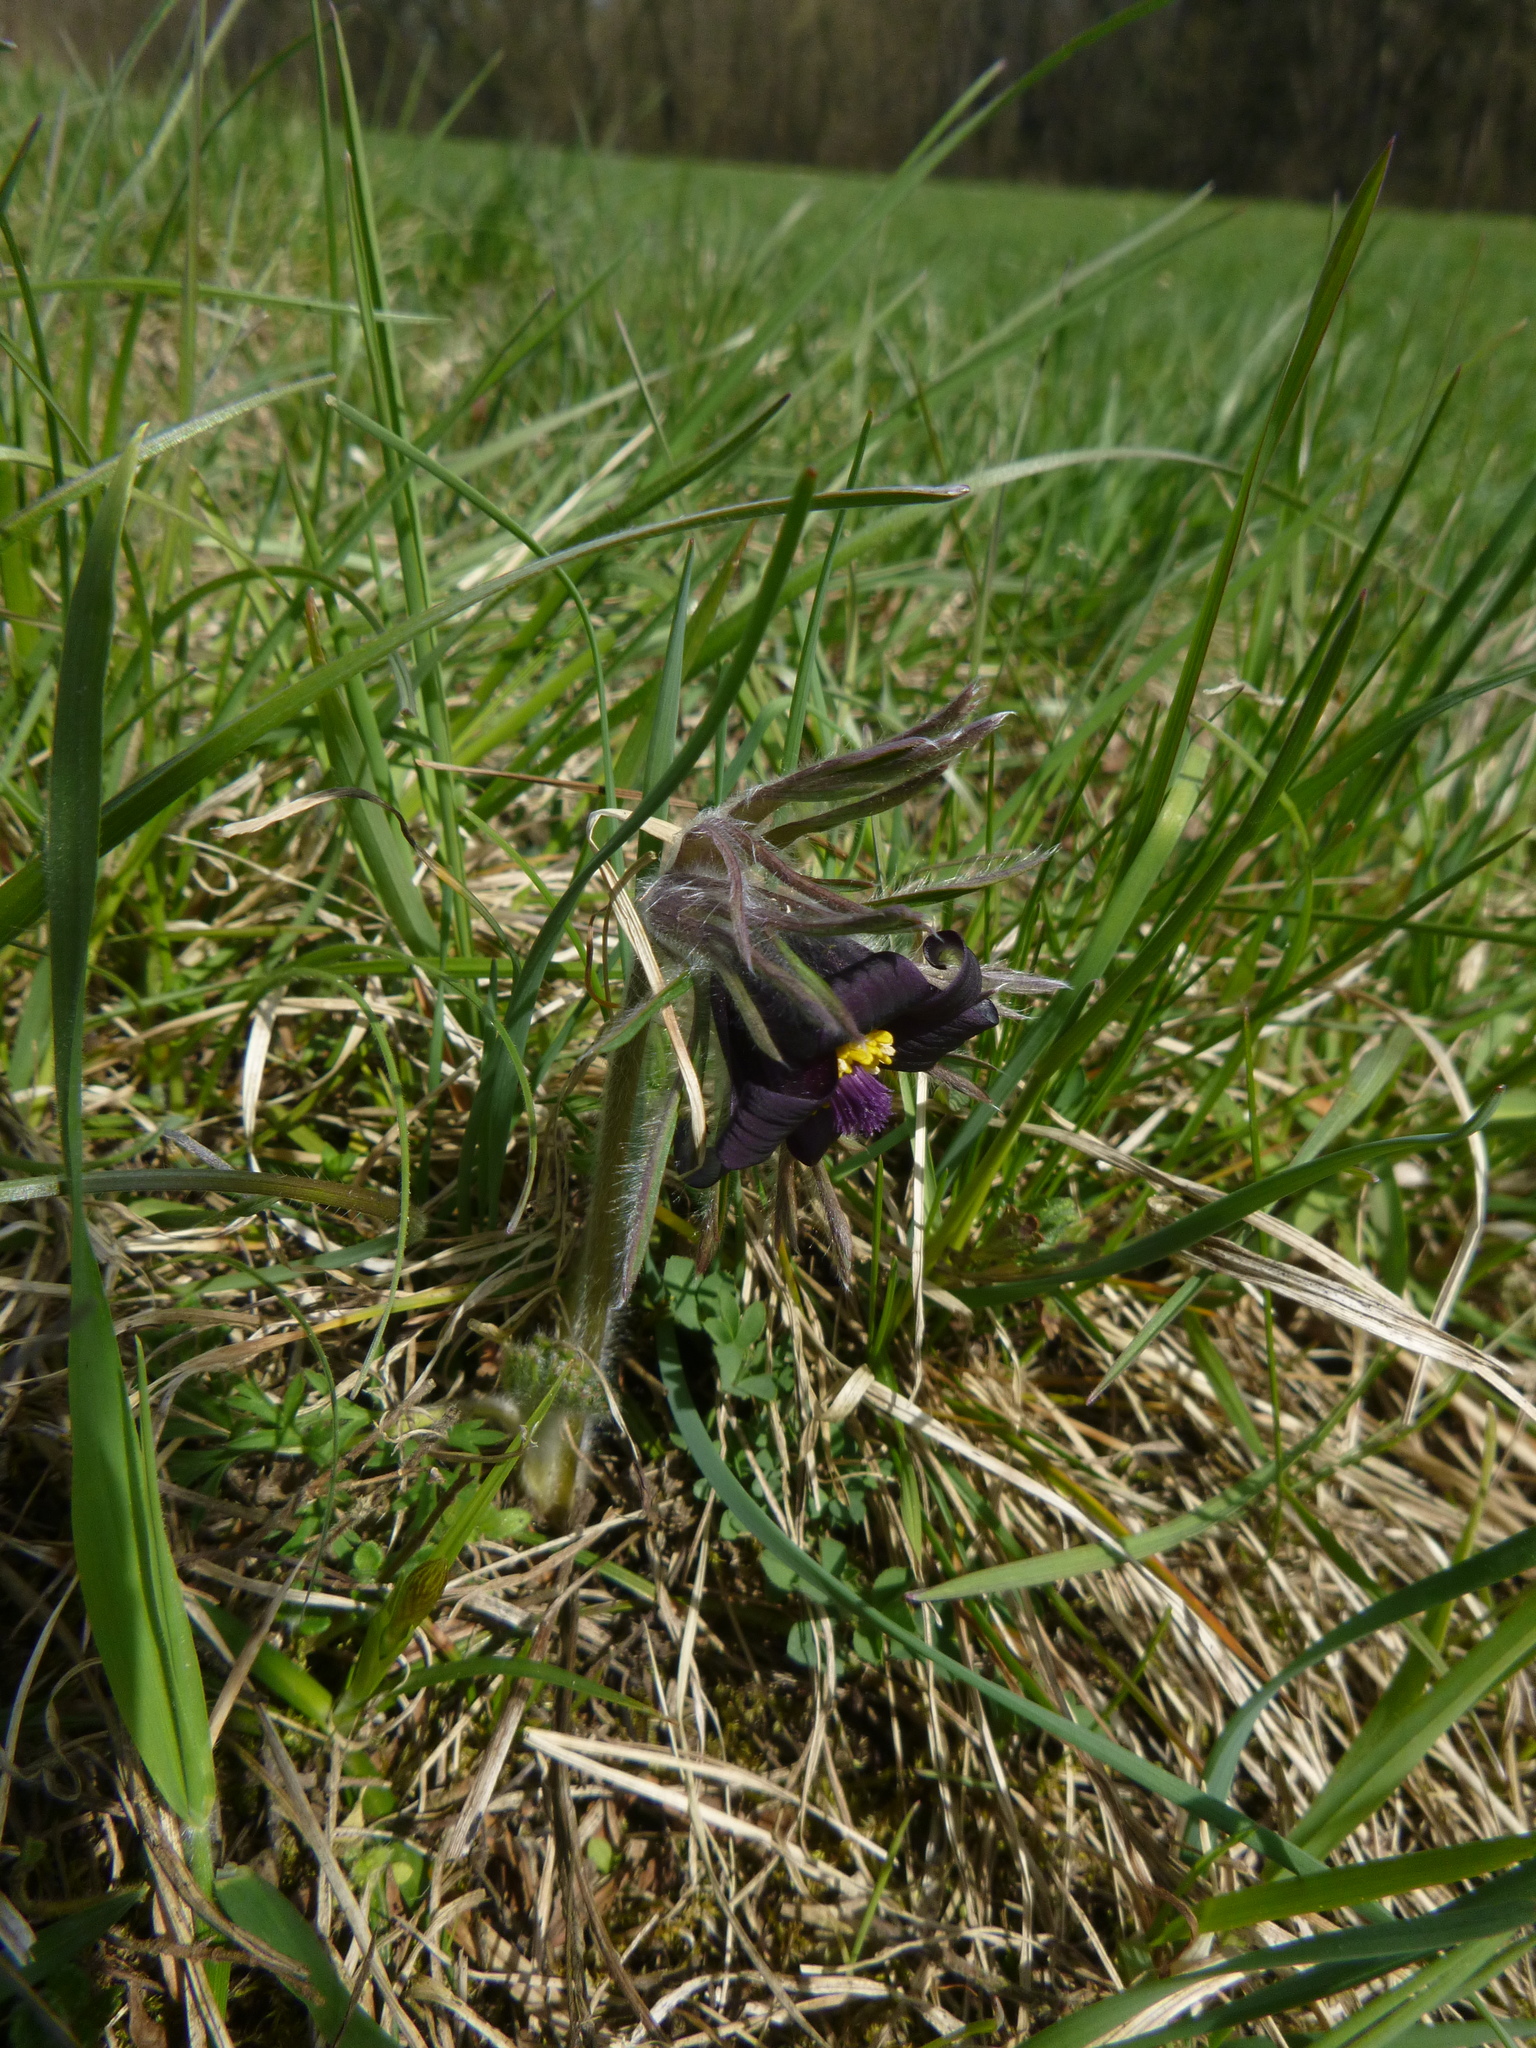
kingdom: Plantae
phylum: Tracheophyta
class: Magnoliopsida
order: Ranunculales
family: Ranunculaceae
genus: Pulsatilla
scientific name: Pulsatilla pratensis
